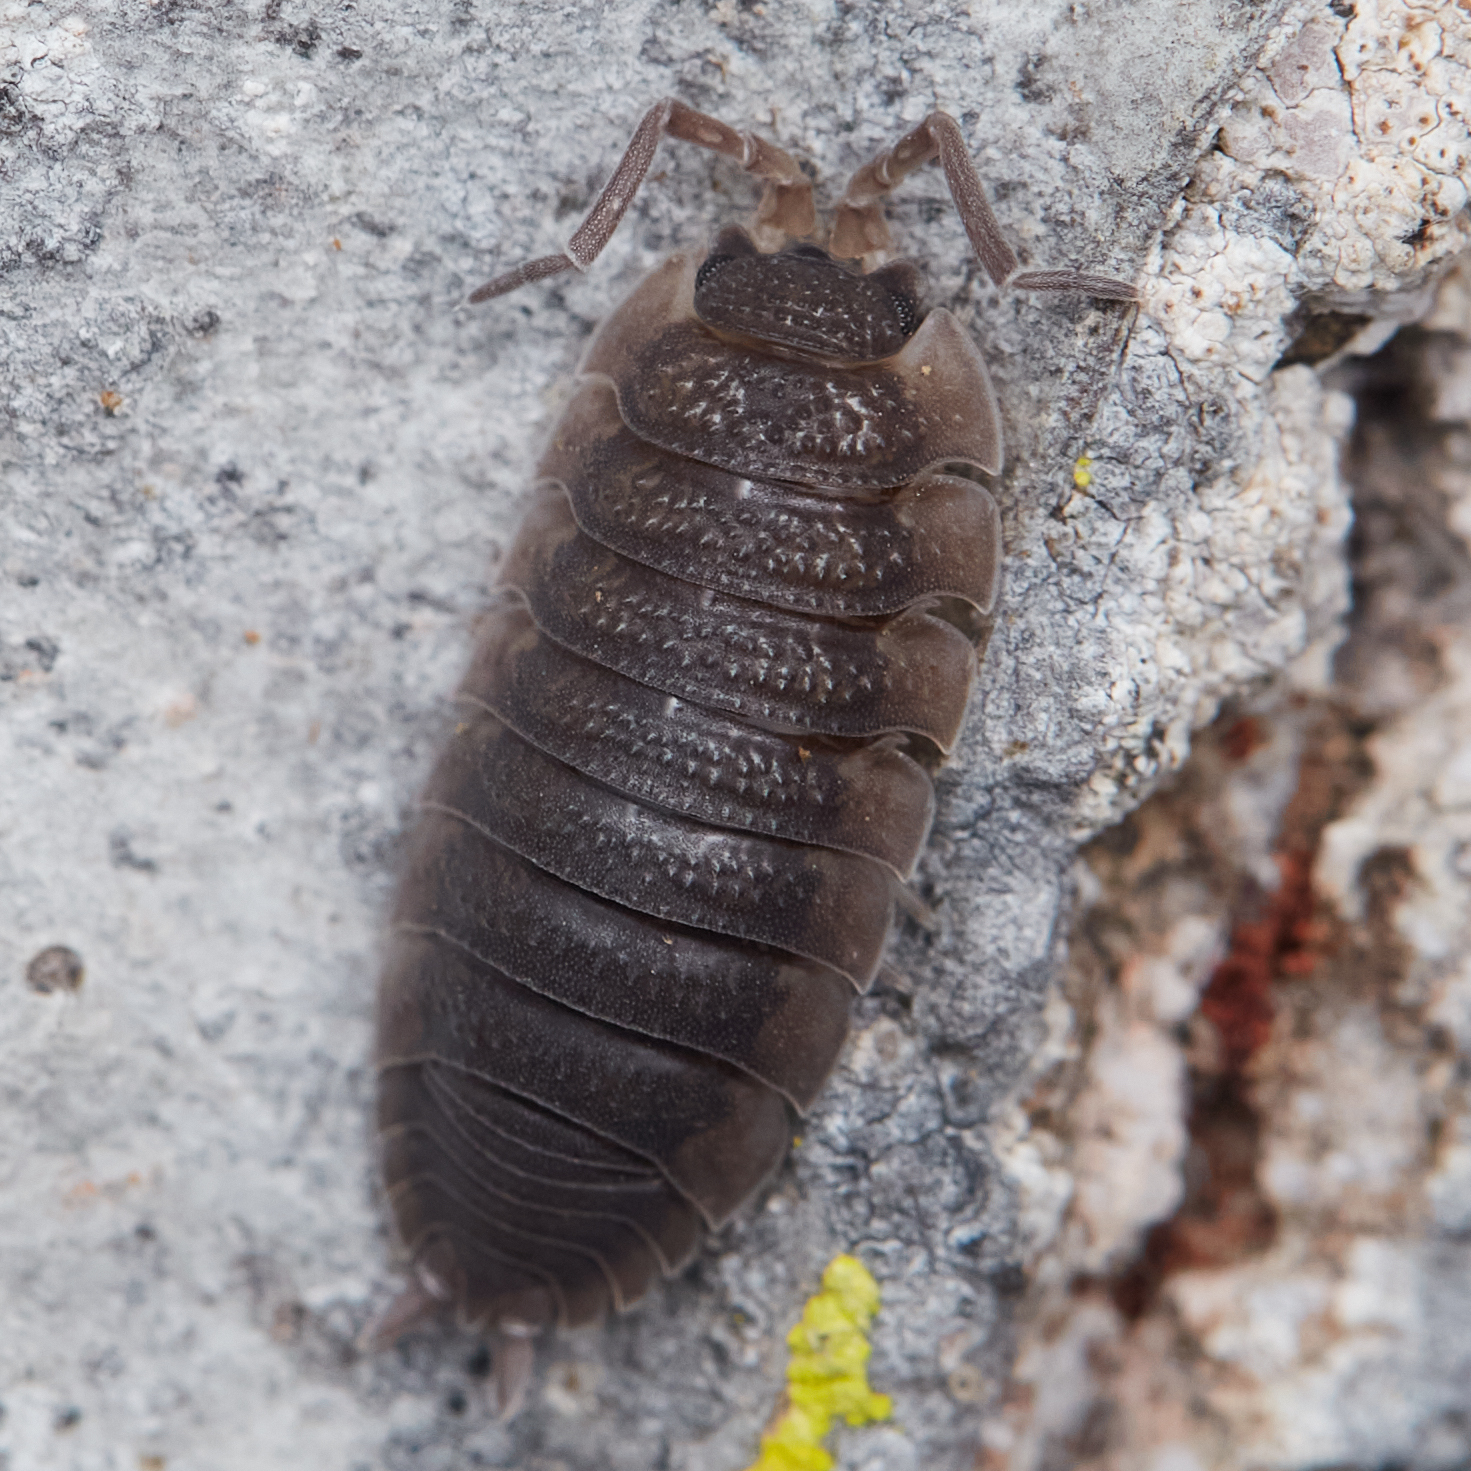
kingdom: Animalia
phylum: Arthropoda
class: Malacostraca
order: Isopoda
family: Porcellionidae
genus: Porcellio
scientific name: Porcellio scaber
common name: Common rough woodlouse
